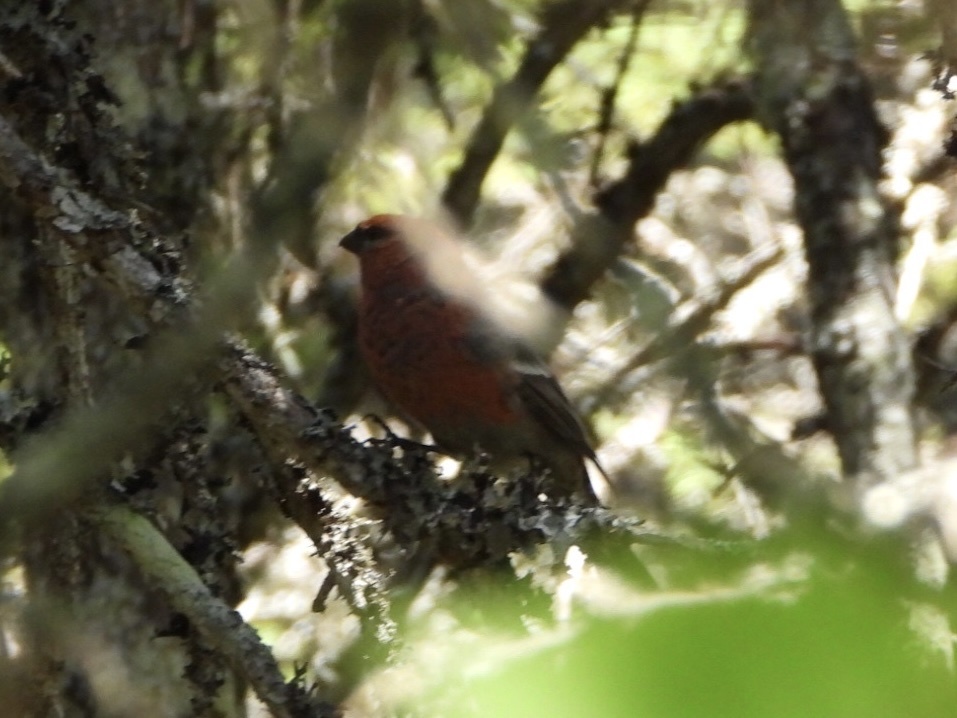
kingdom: Animalia
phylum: Chordata
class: Aves
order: Passeriformes
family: Fringillidae
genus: Pinicola
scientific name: Pinicola enucleator
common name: Pine grosbeak
